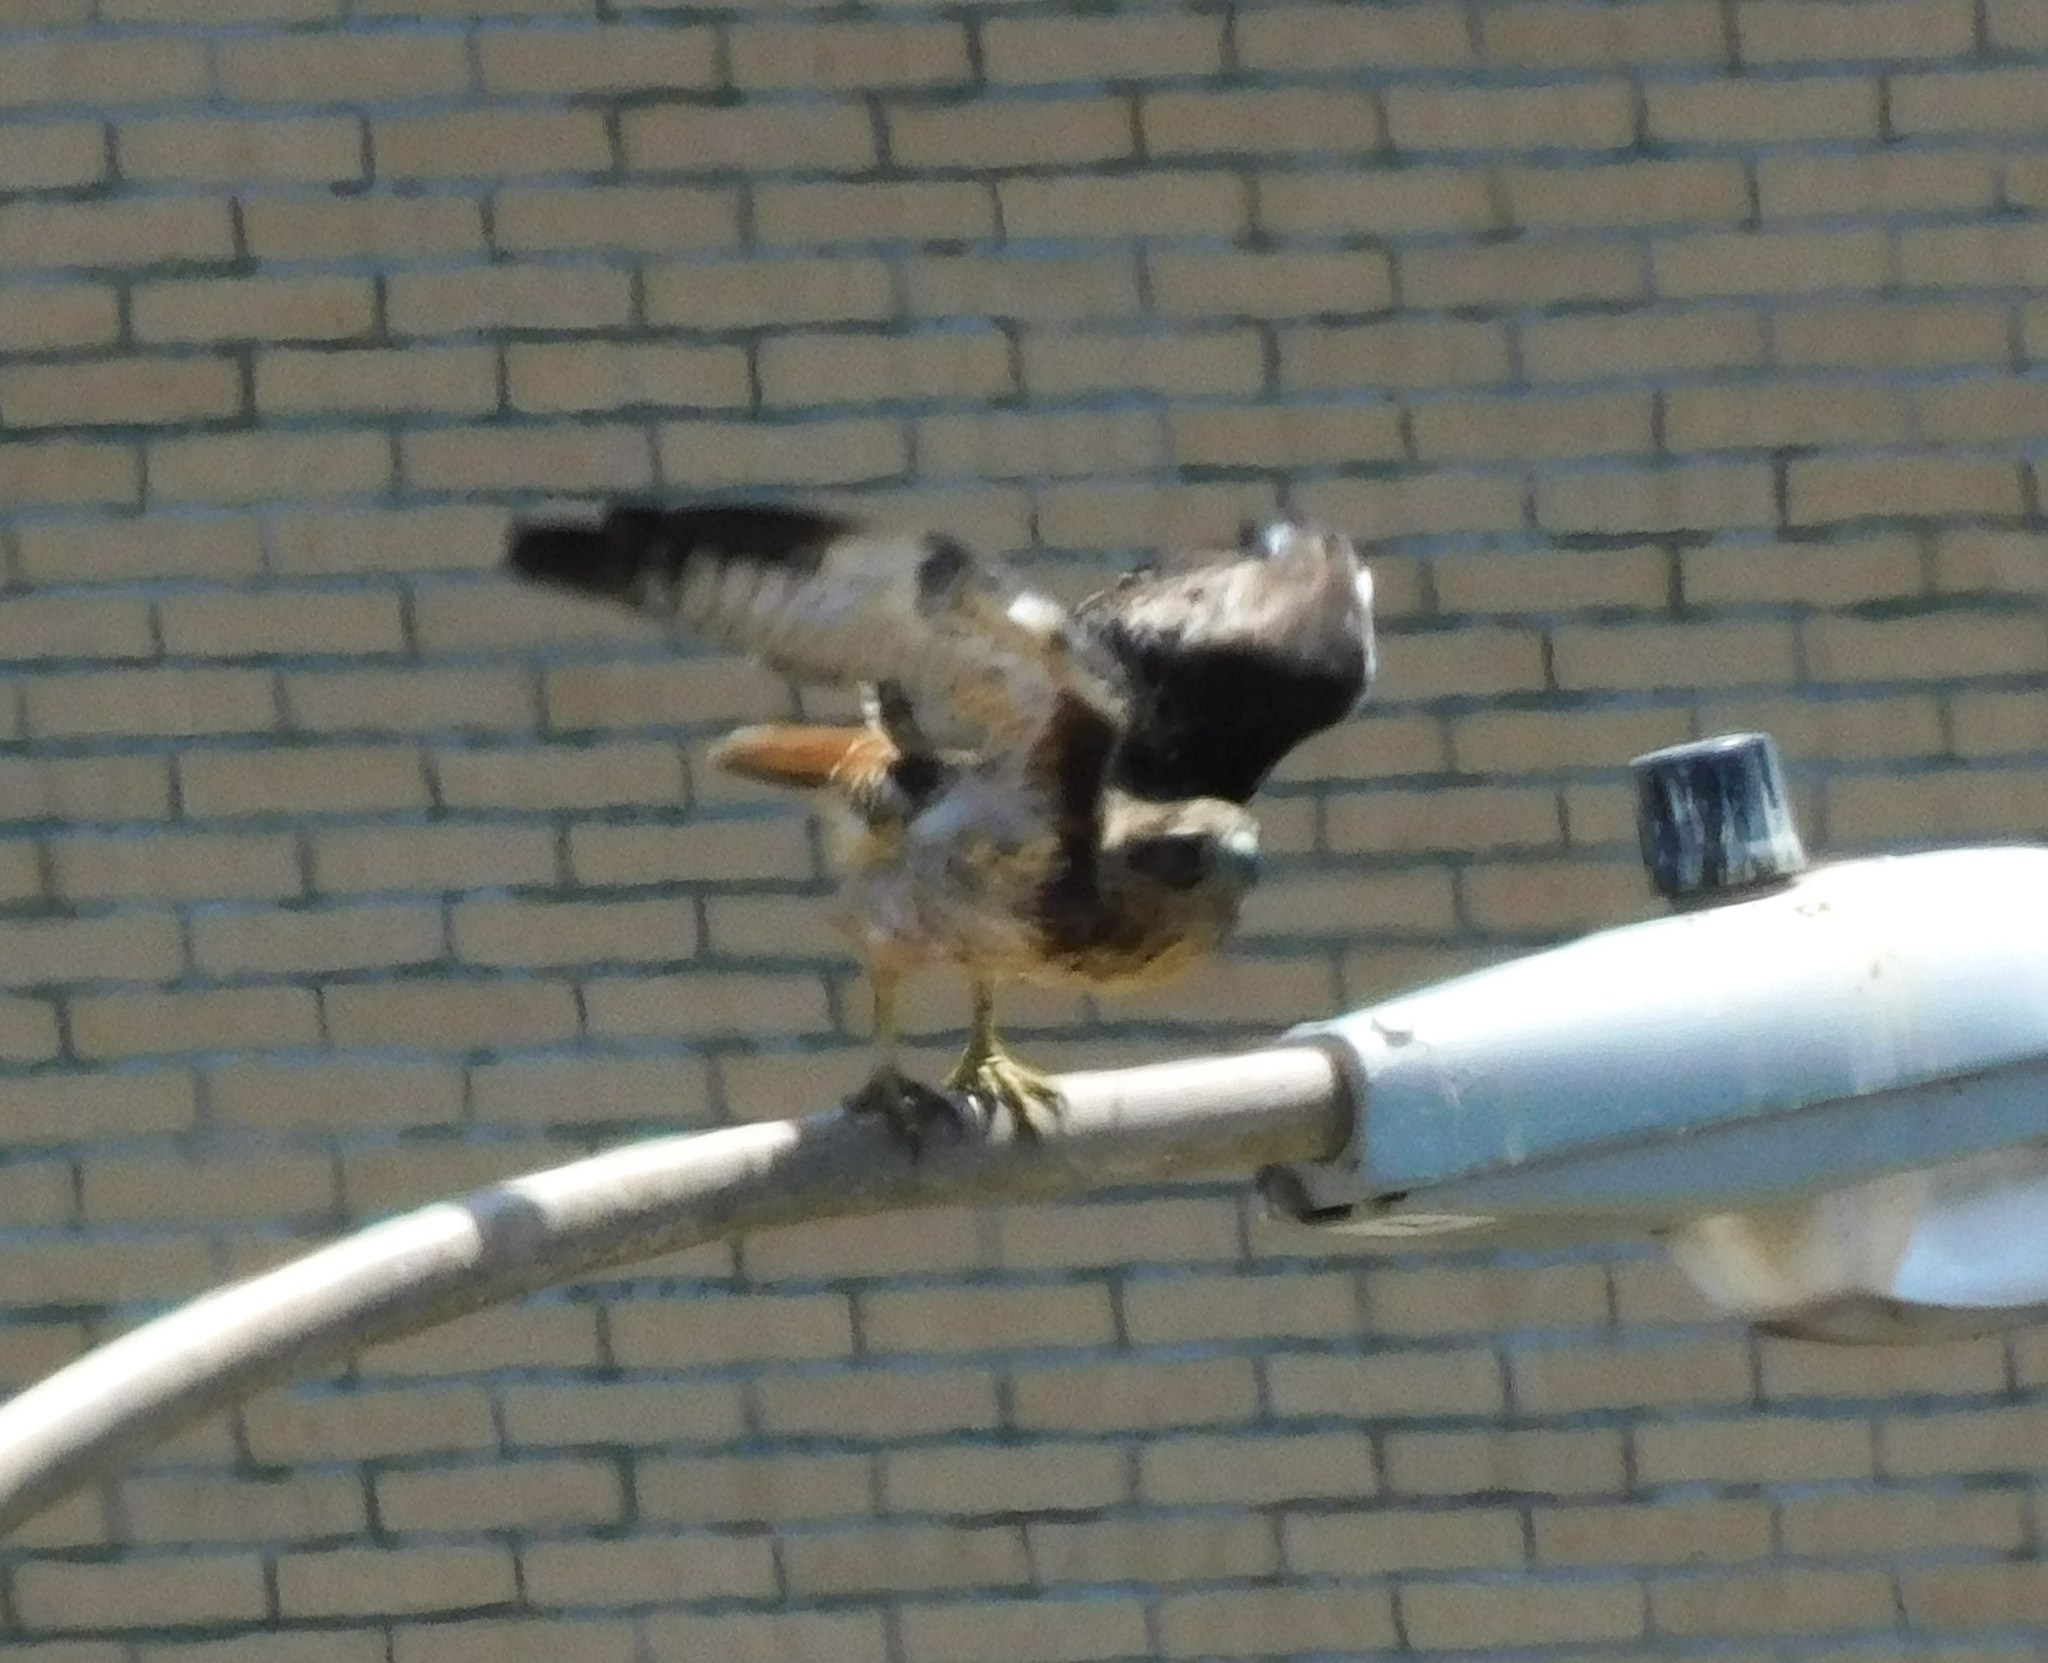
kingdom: Animalia
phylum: Chordata
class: Aves
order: Accipitriformes
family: Accipitridae
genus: Buteo
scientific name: Buteo jamaicensis
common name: Red-tailed hawk
